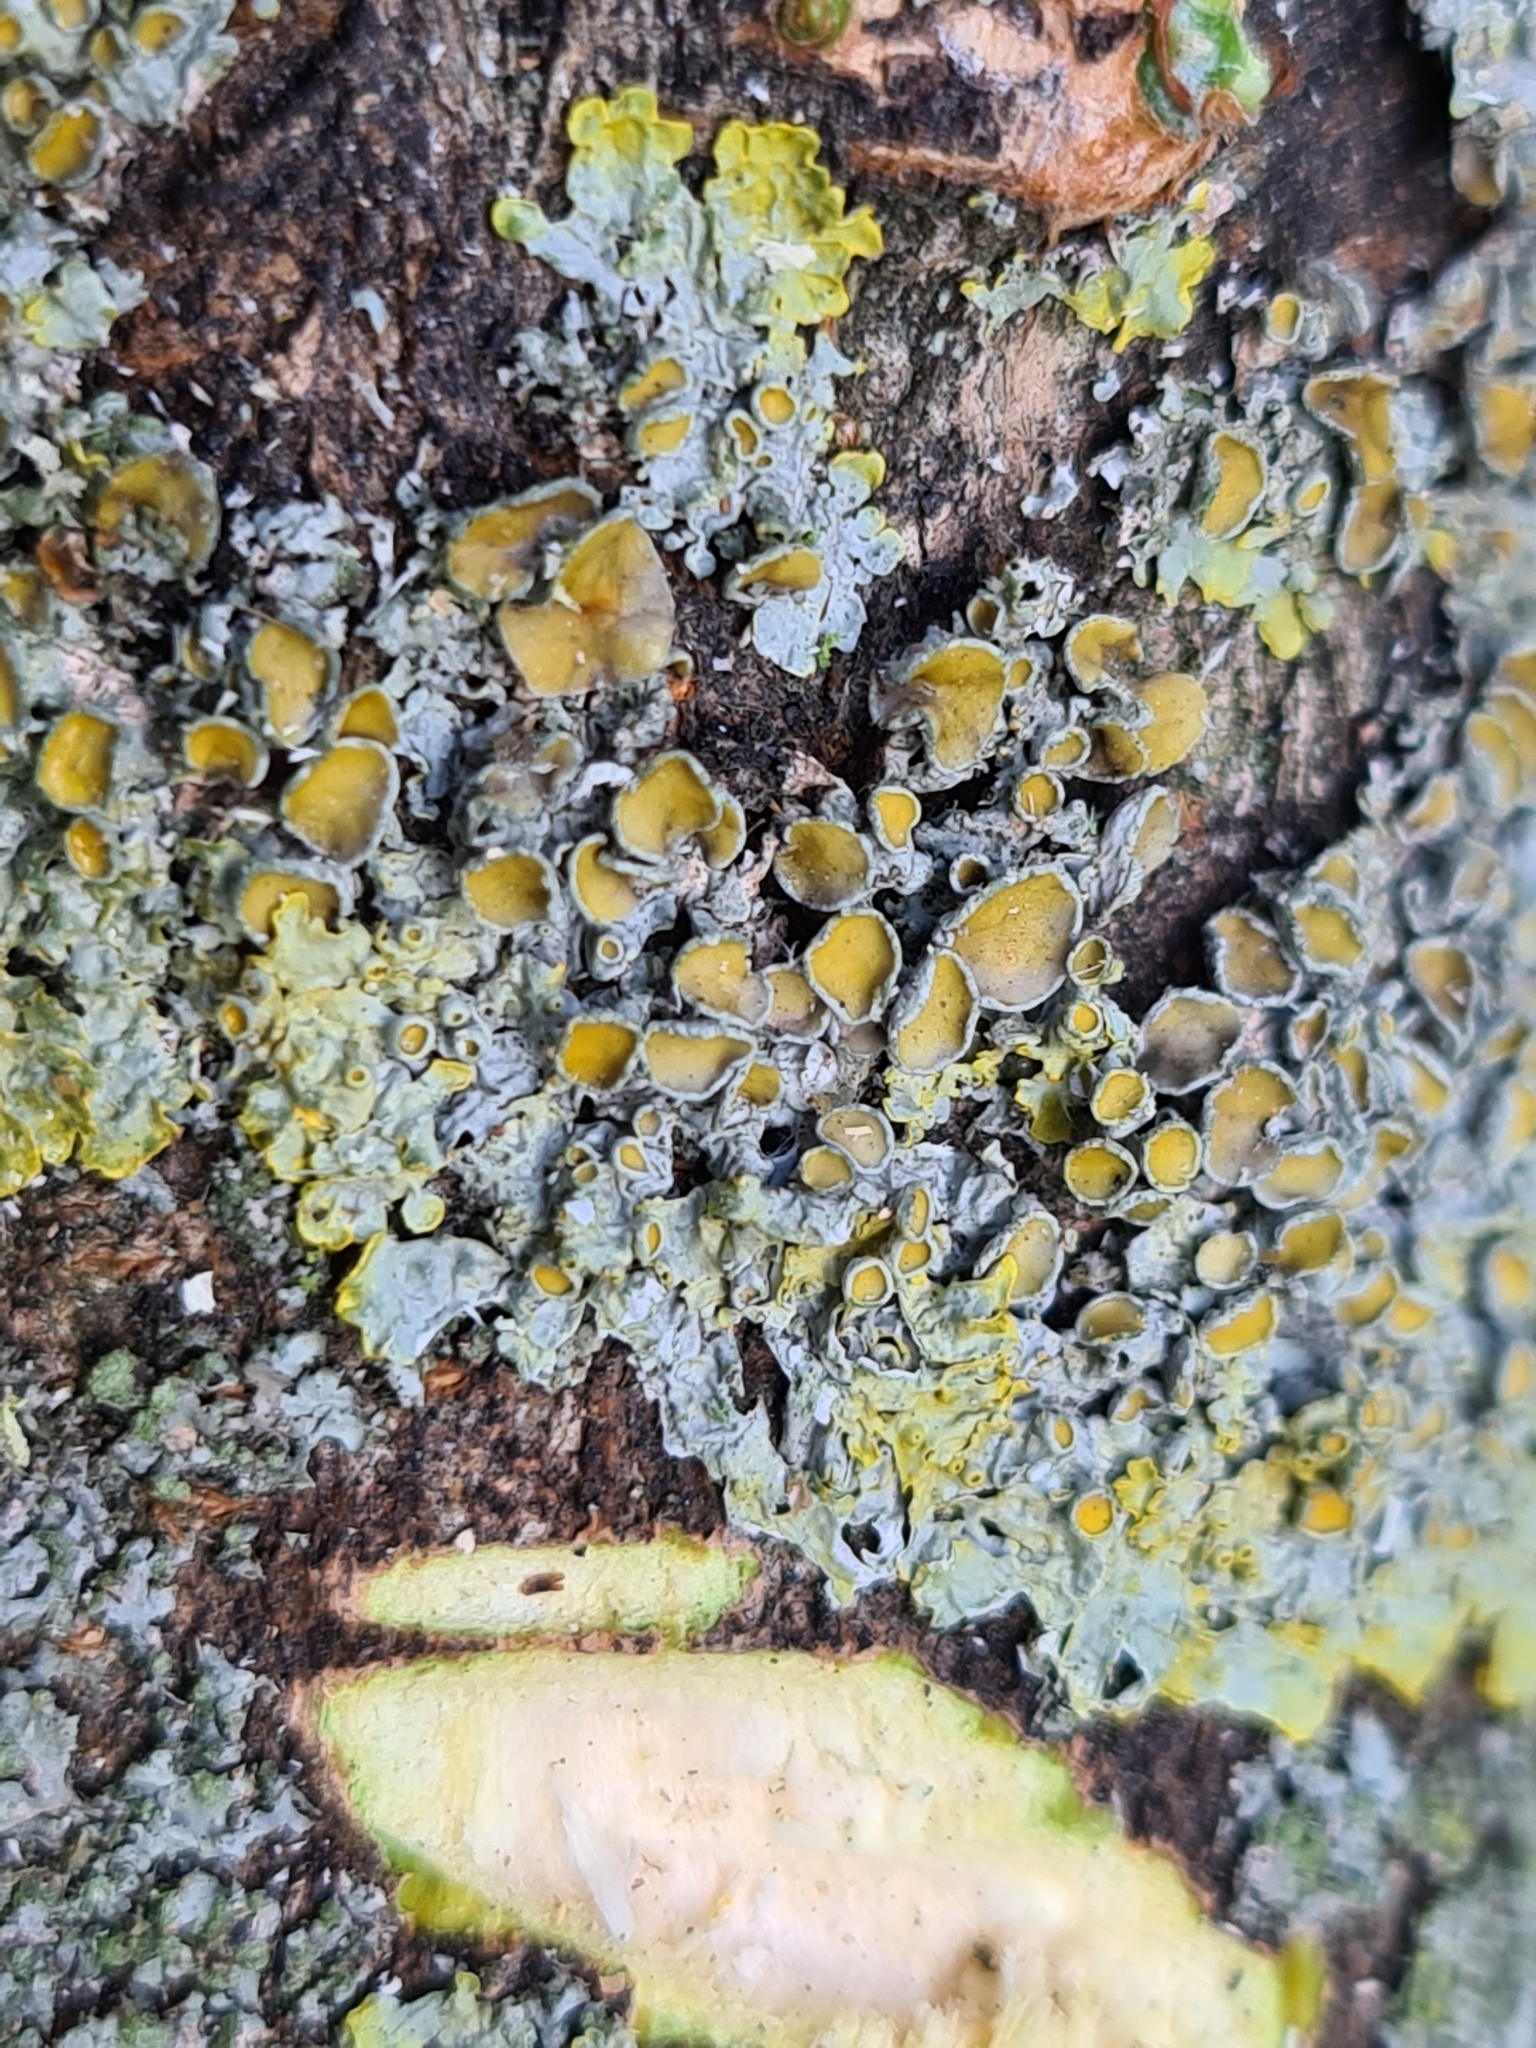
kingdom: Fungi
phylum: Ascomycota
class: Lecanoromycetes
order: Teloschistales
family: Teloschistaceae
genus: Xanthoria
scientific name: Xanthoria parietina
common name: Common orange lichen
